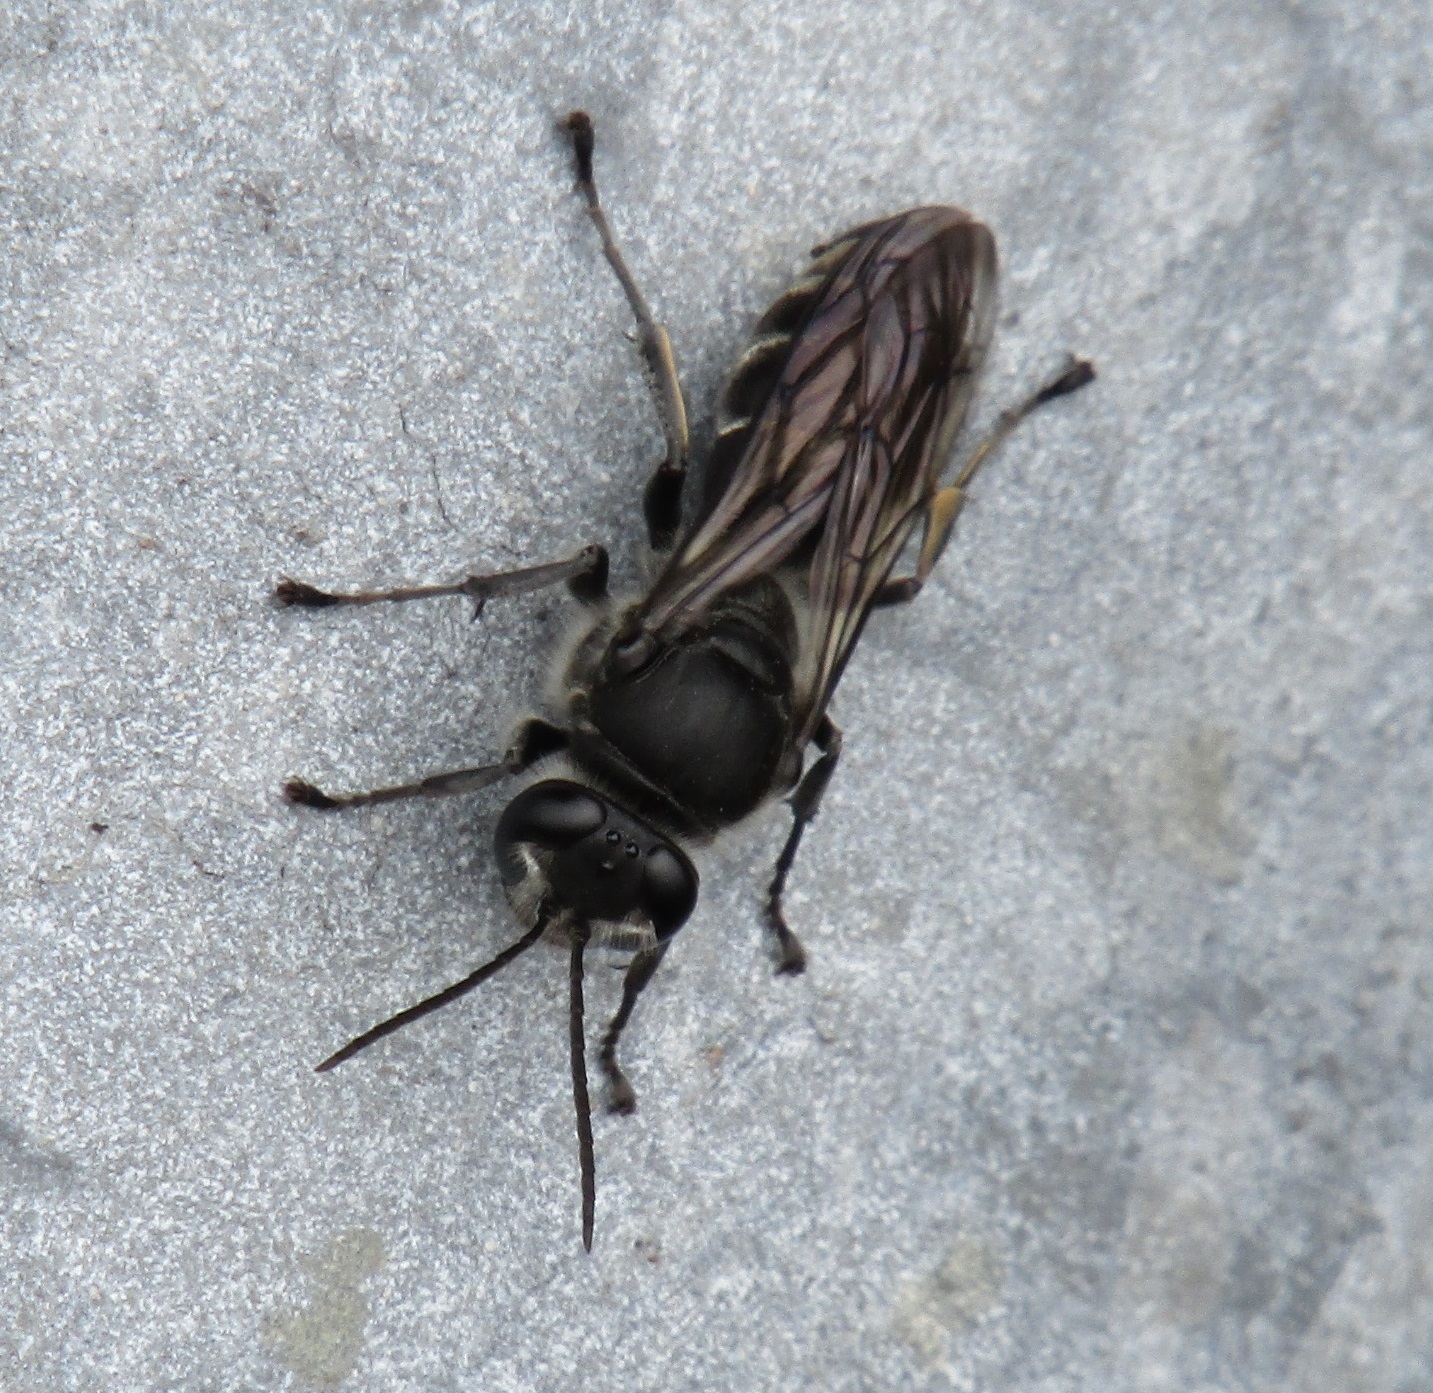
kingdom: Animalia
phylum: Arthropoda
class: Insecta
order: Hymenoptera
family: Crabronidae
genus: Pison
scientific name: Pison spinolae
